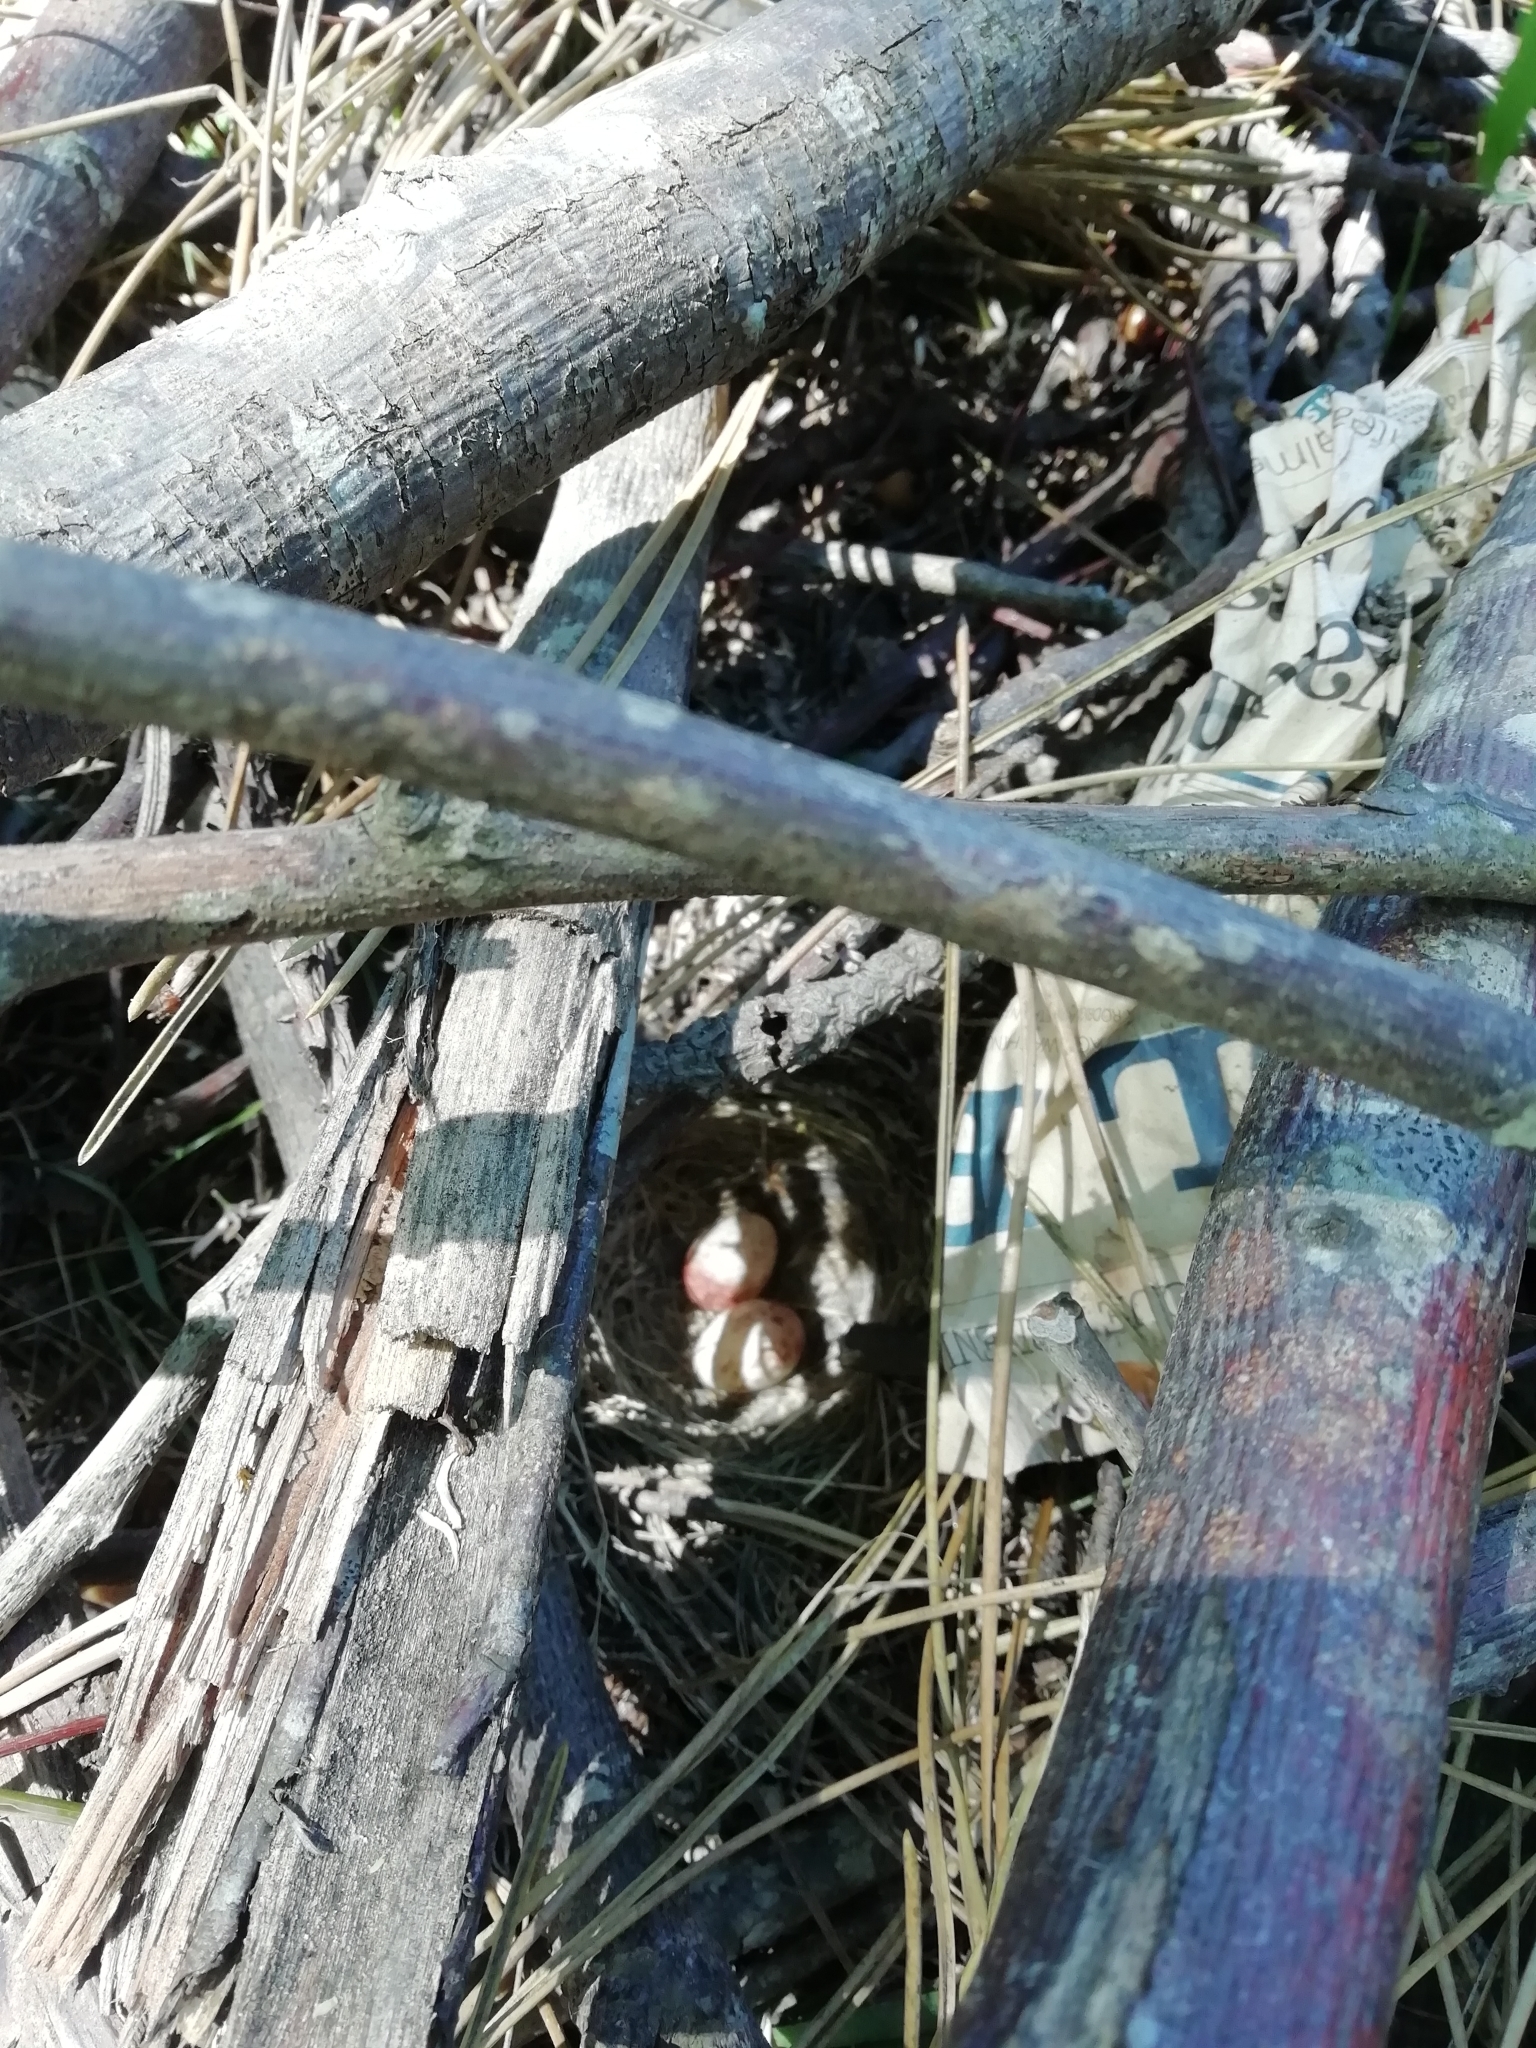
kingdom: Animalia
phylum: Chordata
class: Aves
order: Passeriformes
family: Passerellidae
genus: Zonotrichia
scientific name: Zonotrichia capensis
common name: Rufous-collared sparrow
